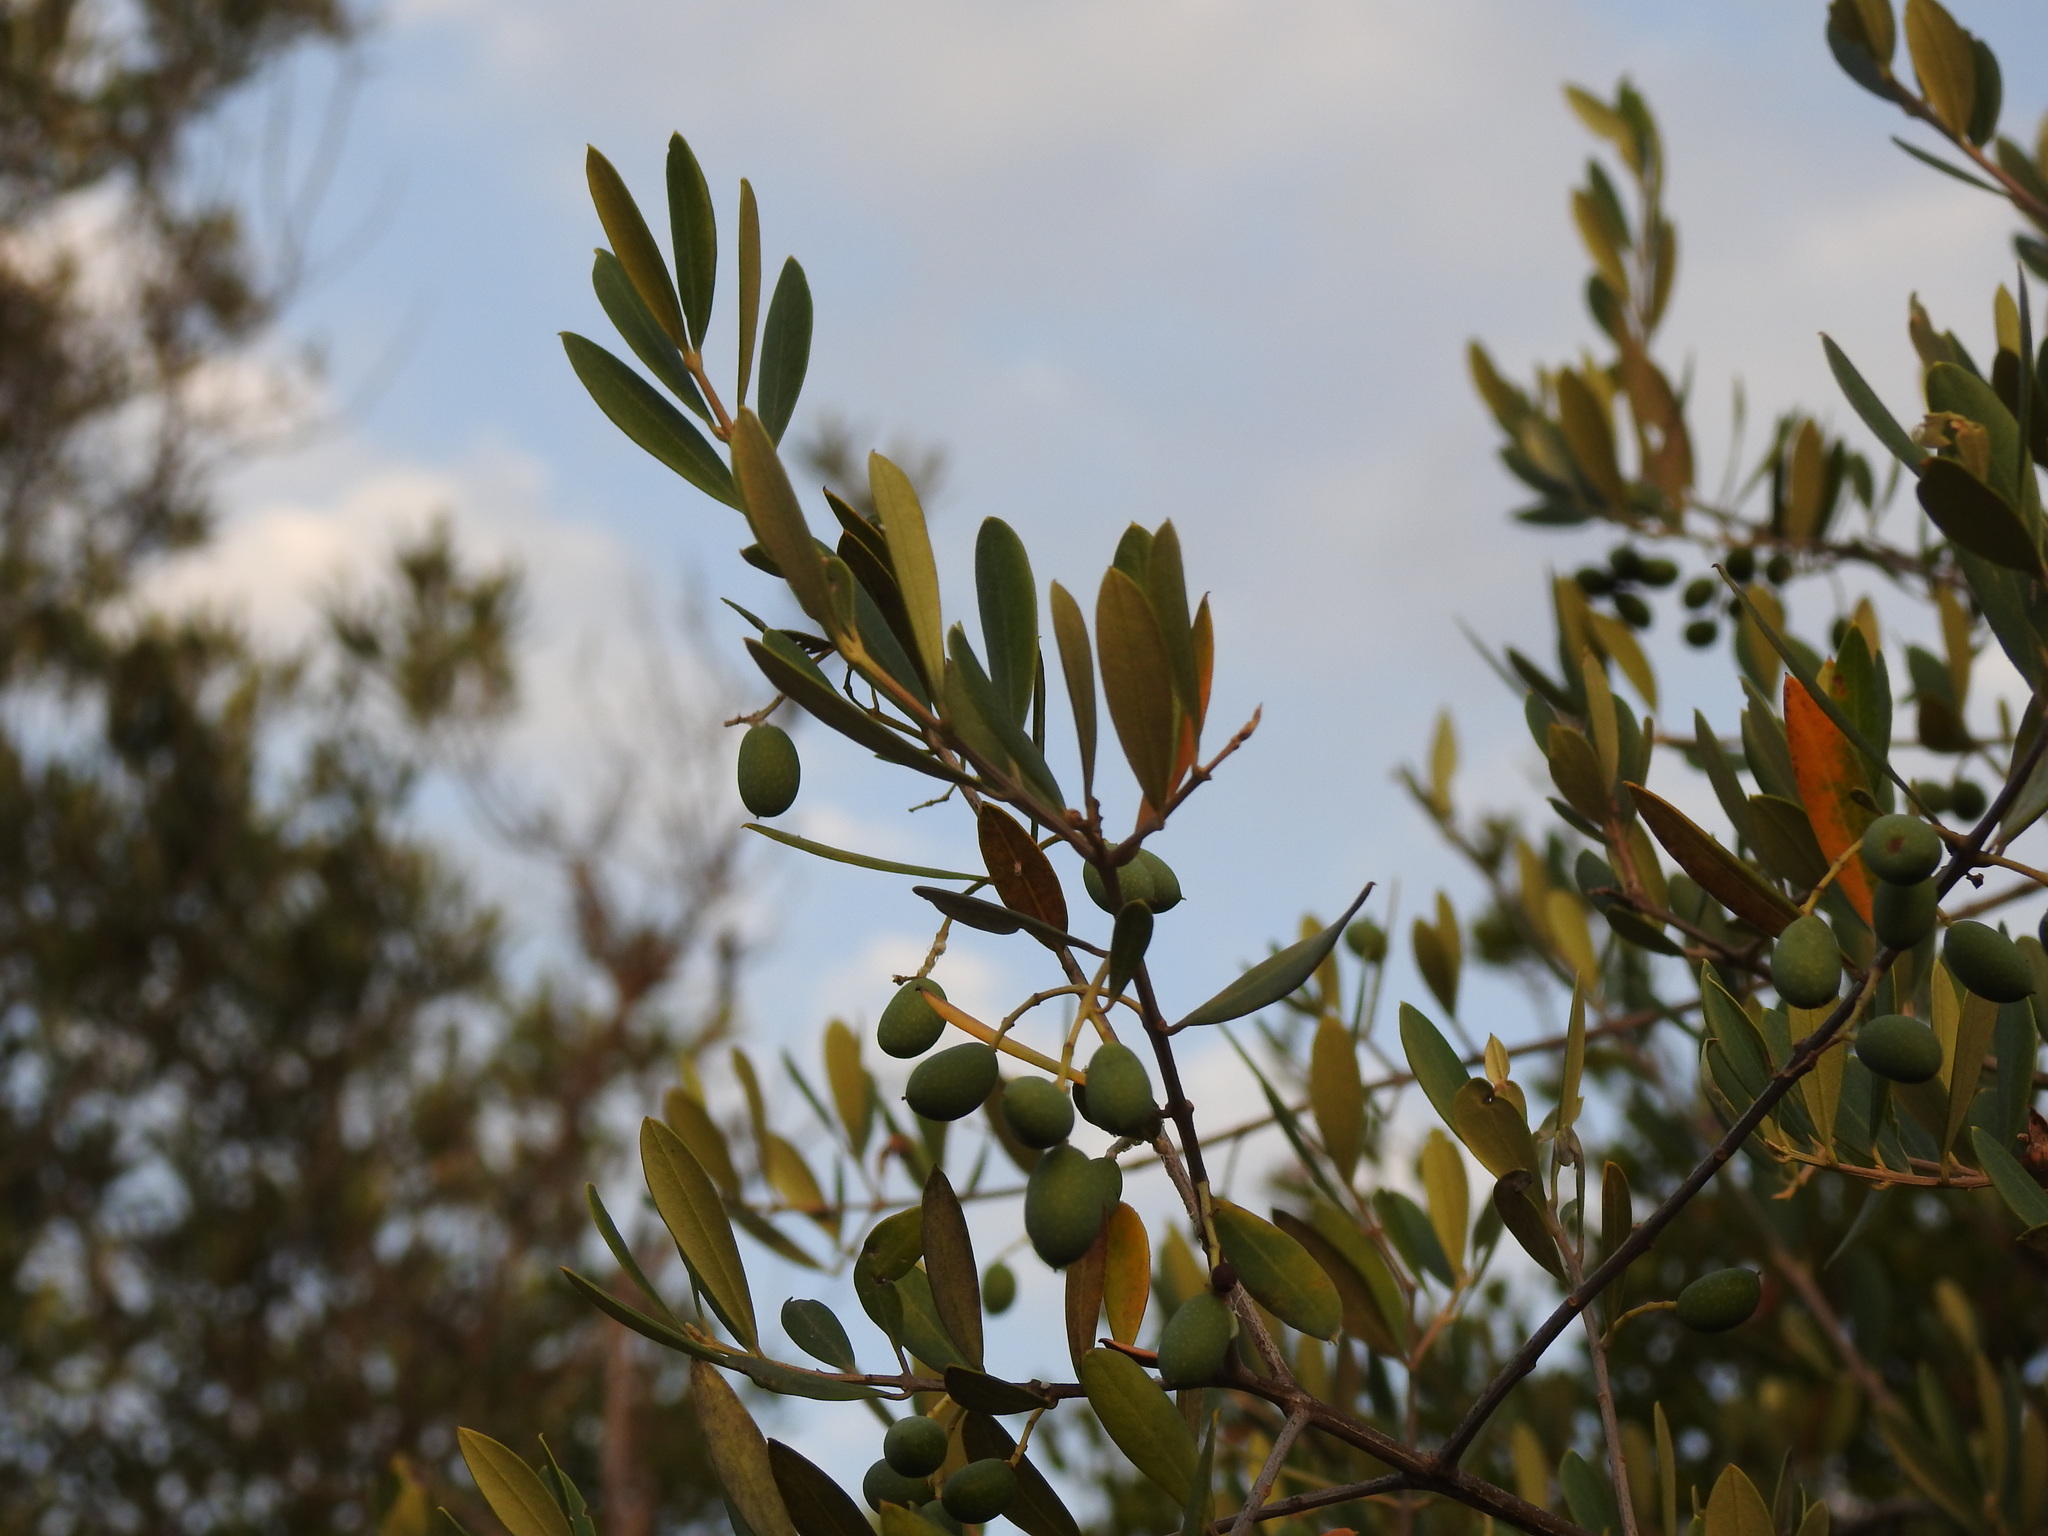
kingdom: Plantae
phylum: Tracheophyta
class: Magnoliopsida
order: Lamiales
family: Oleaceae
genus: Olea
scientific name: Olea europaea
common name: Olive
